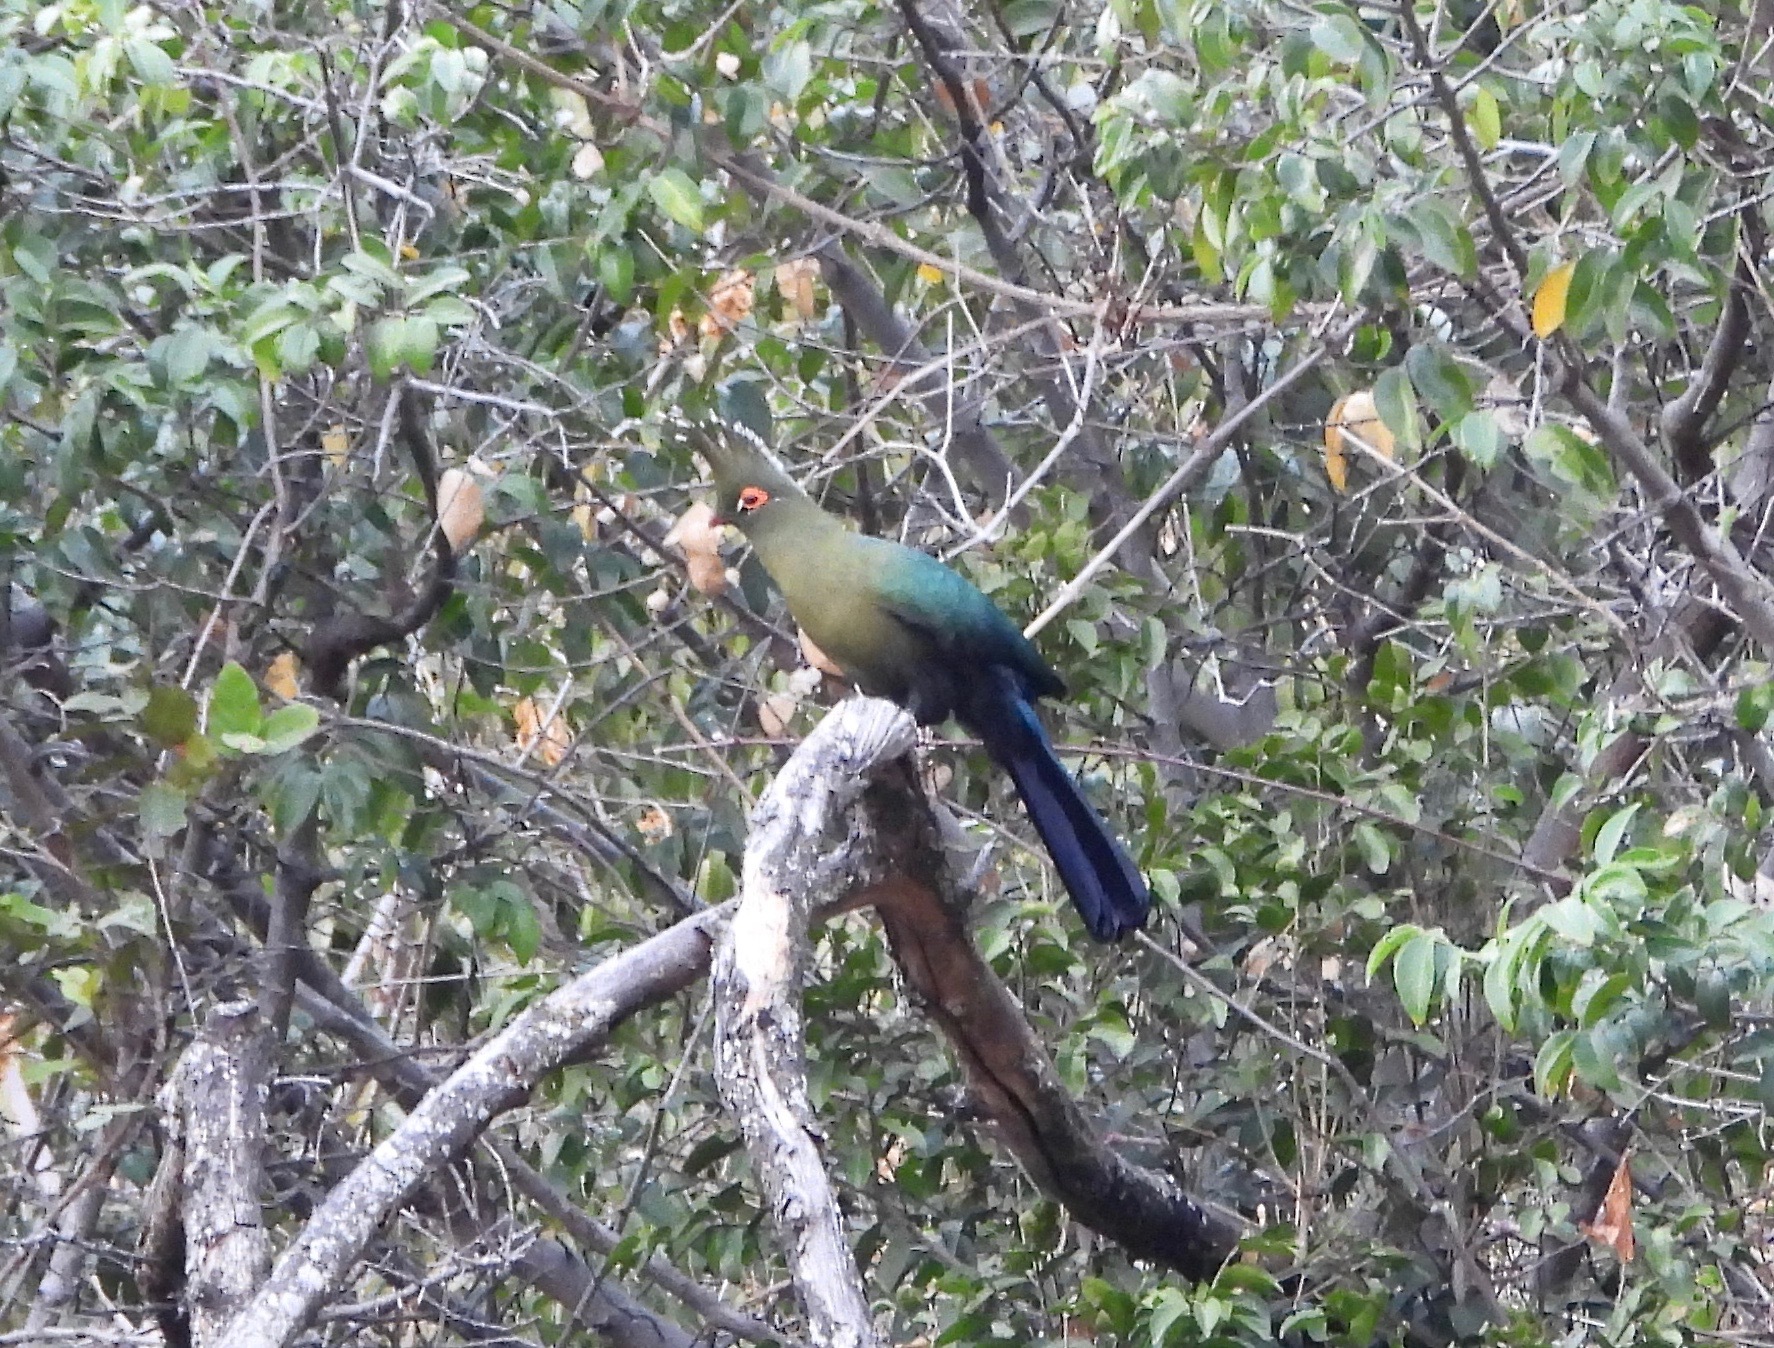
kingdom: Animalia
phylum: Chordata
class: Aves
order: Musophagiformes
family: Musophagidae
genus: Tauraco
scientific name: Tauraco schalowi
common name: Schalow's turaco
